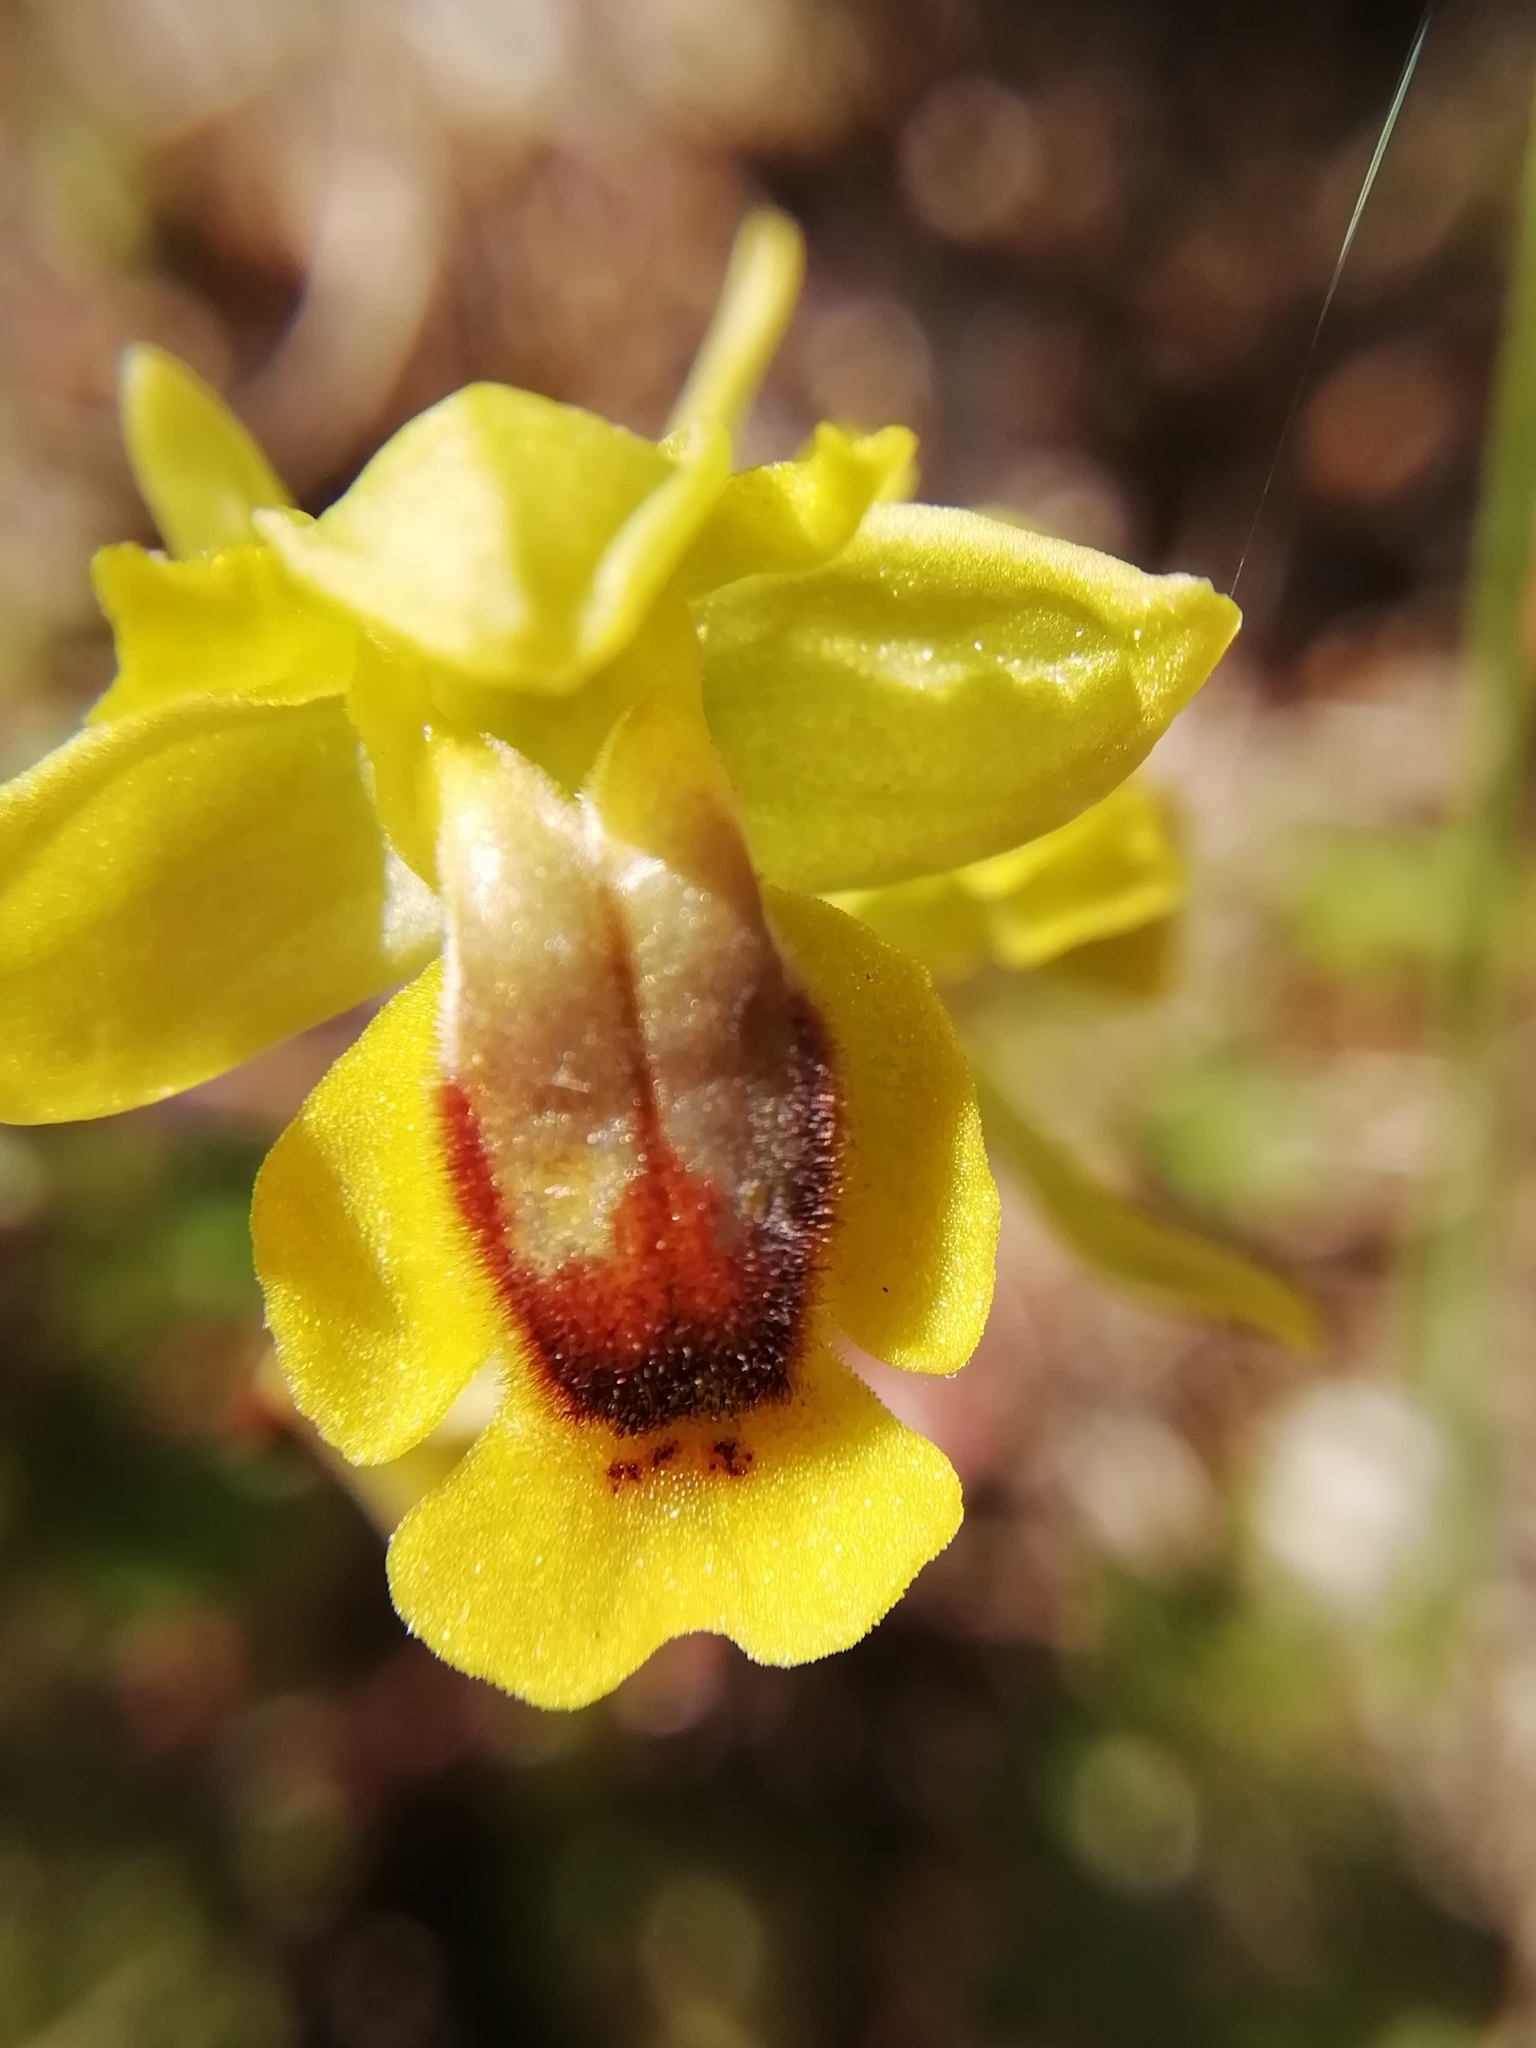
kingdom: Plantae
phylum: Tracheophyta
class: Liliopsida
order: Asparagales
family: Orchidaceae
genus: Ophrys
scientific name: Ophrys lutea
